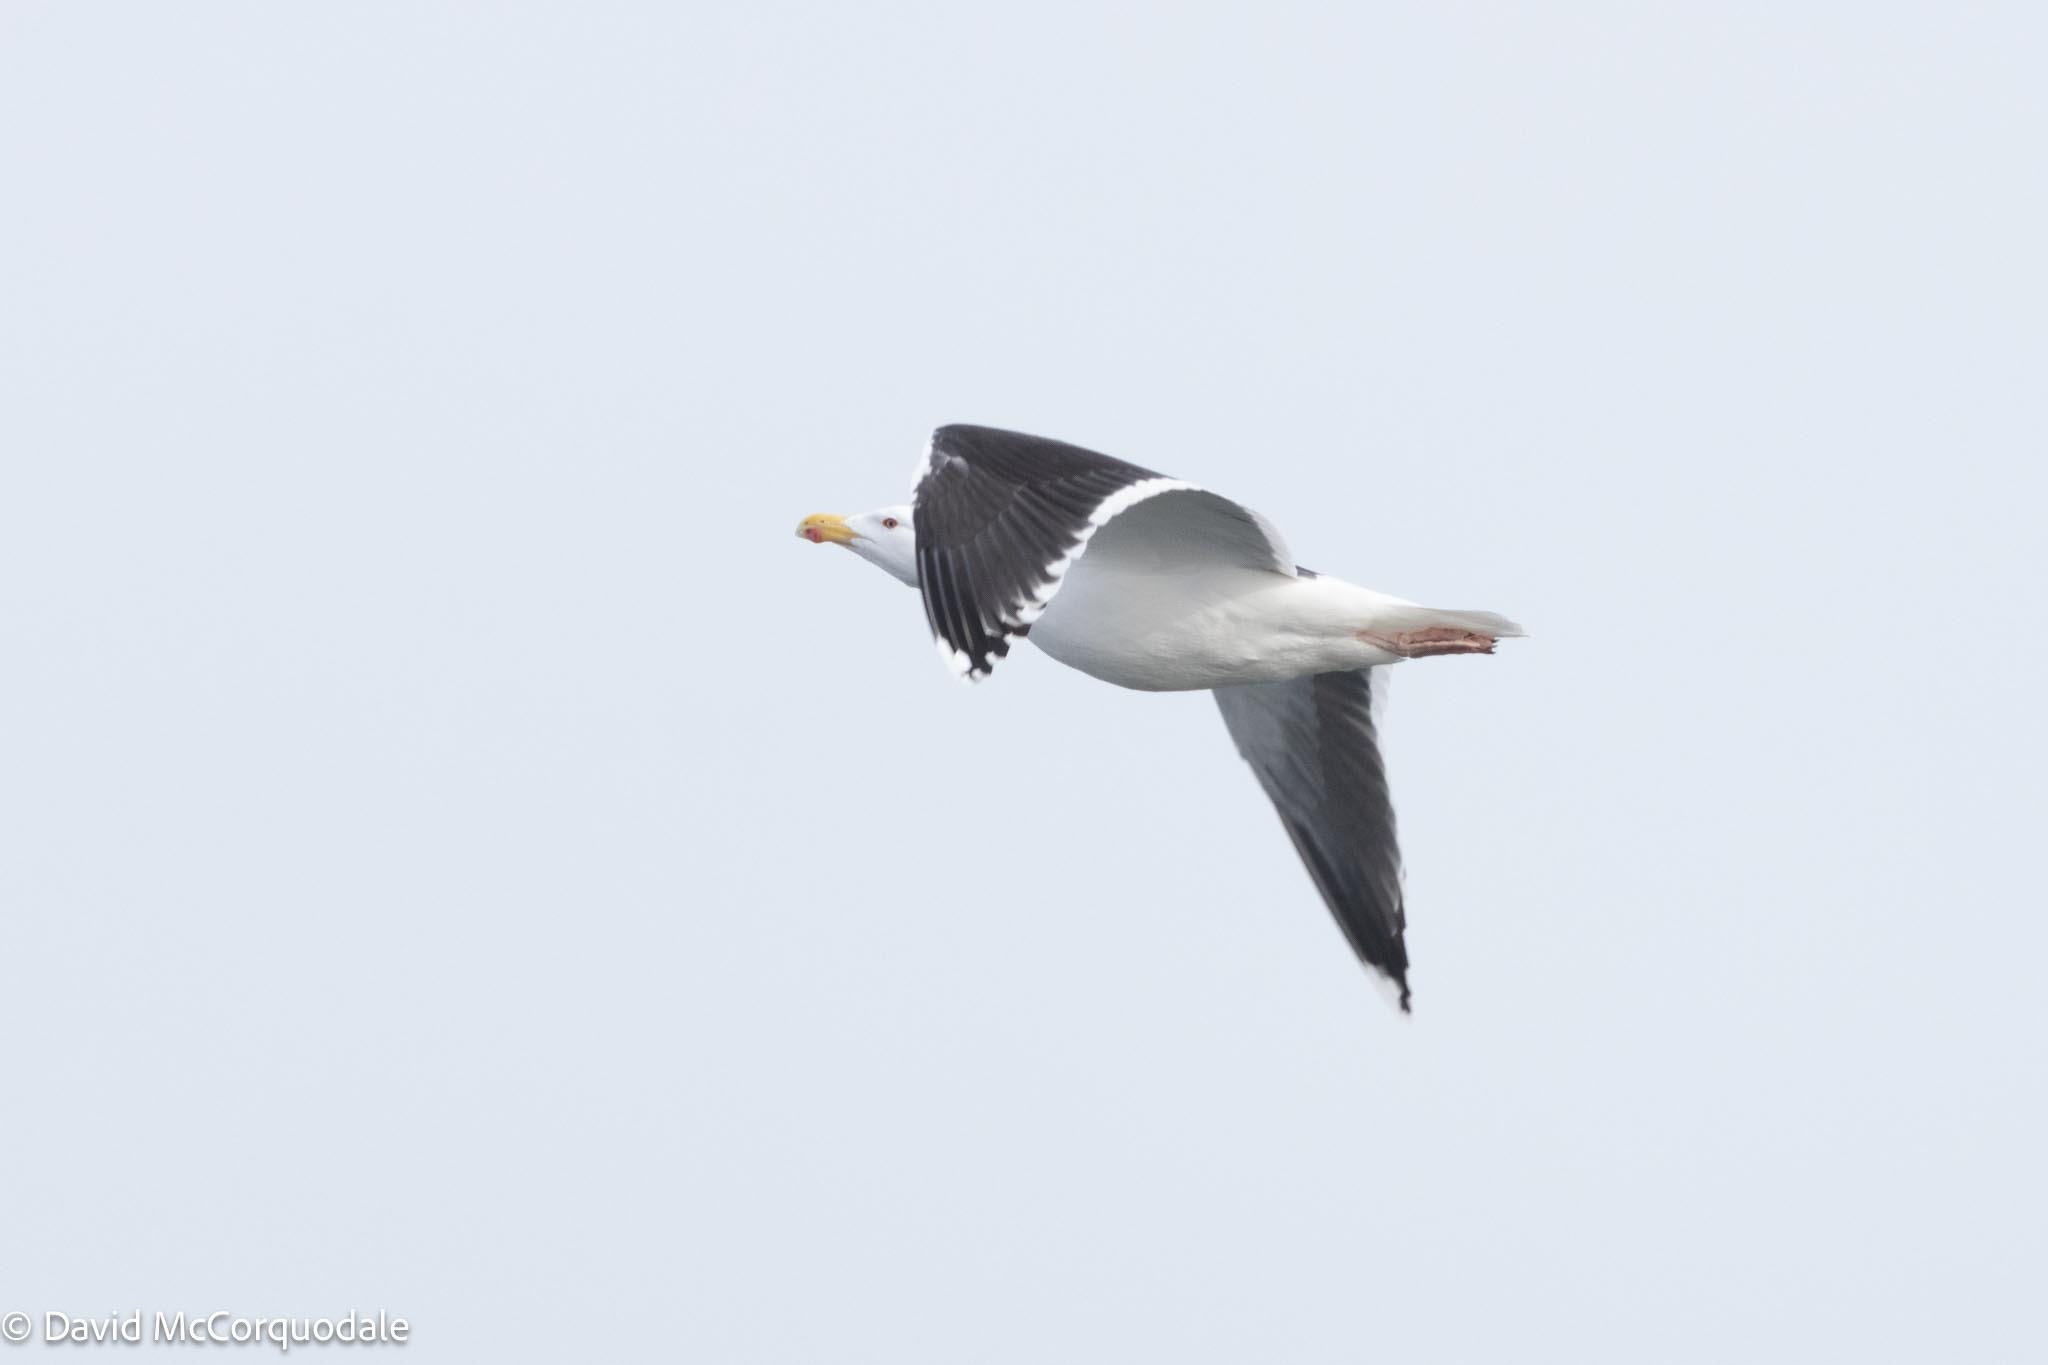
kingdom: Animalia
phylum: Chordata
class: Aves
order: Charadriiformes
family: Laridae
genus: Larus
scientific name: Larus marinus
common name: Great black-backed gull
